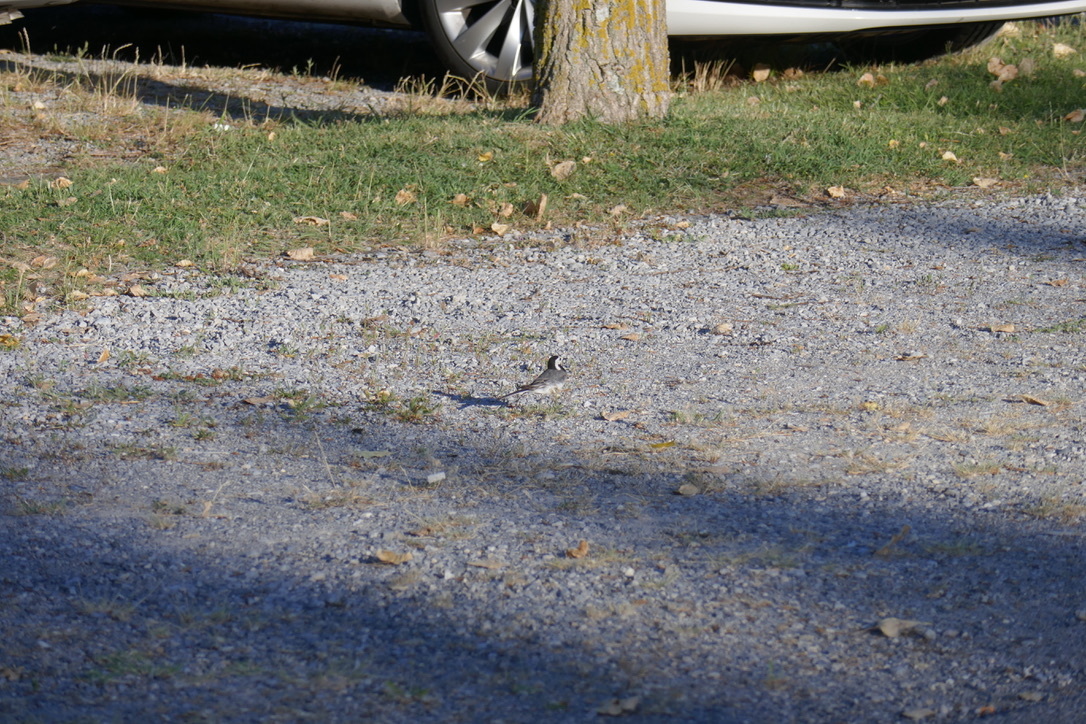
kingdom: Animalia
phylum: Chordata
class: Aves
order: Passeriformes
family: Motacillidae
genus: Motacilla
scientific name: Motacilla alba
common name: White wagtail
